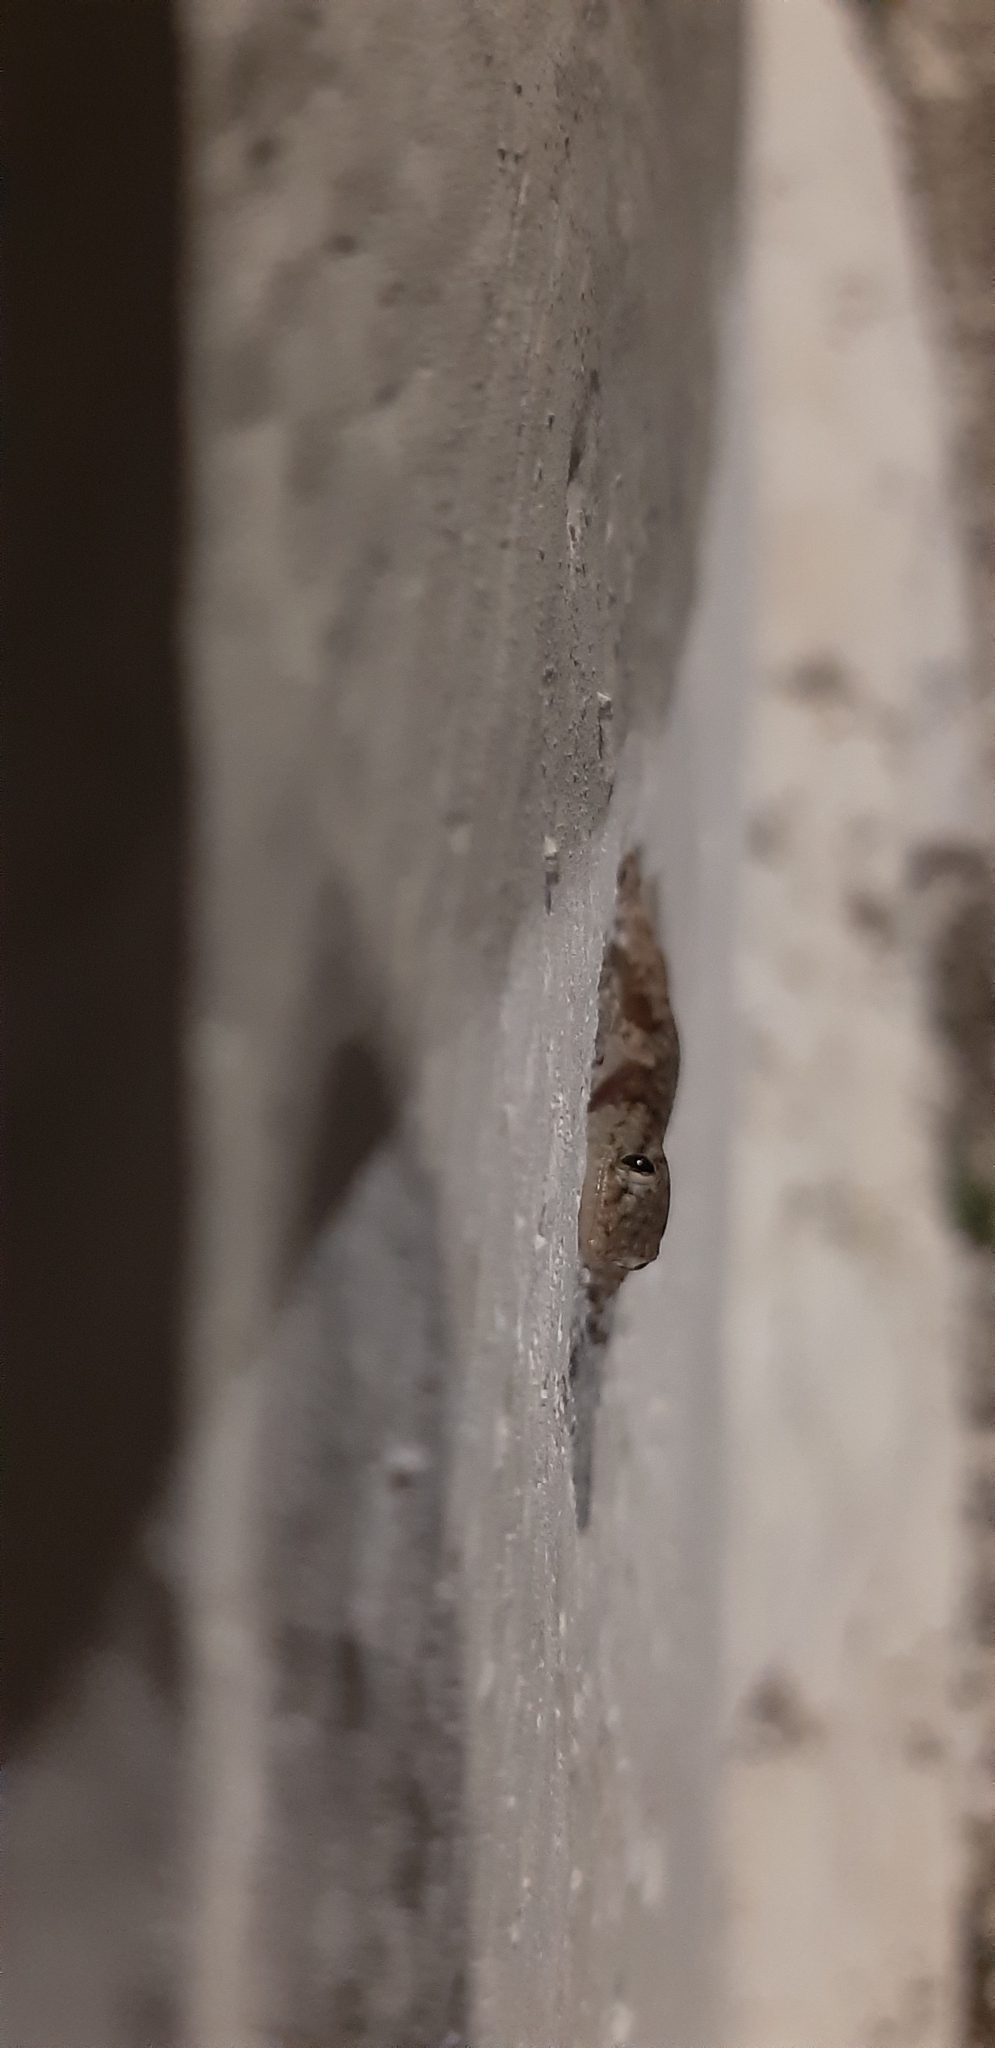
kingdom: Animalia
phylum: Chordata
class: Squamata
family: Phyllodactylidae
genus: Tarentola
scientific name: Tarentola mauritanica
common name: Moorish gecko
